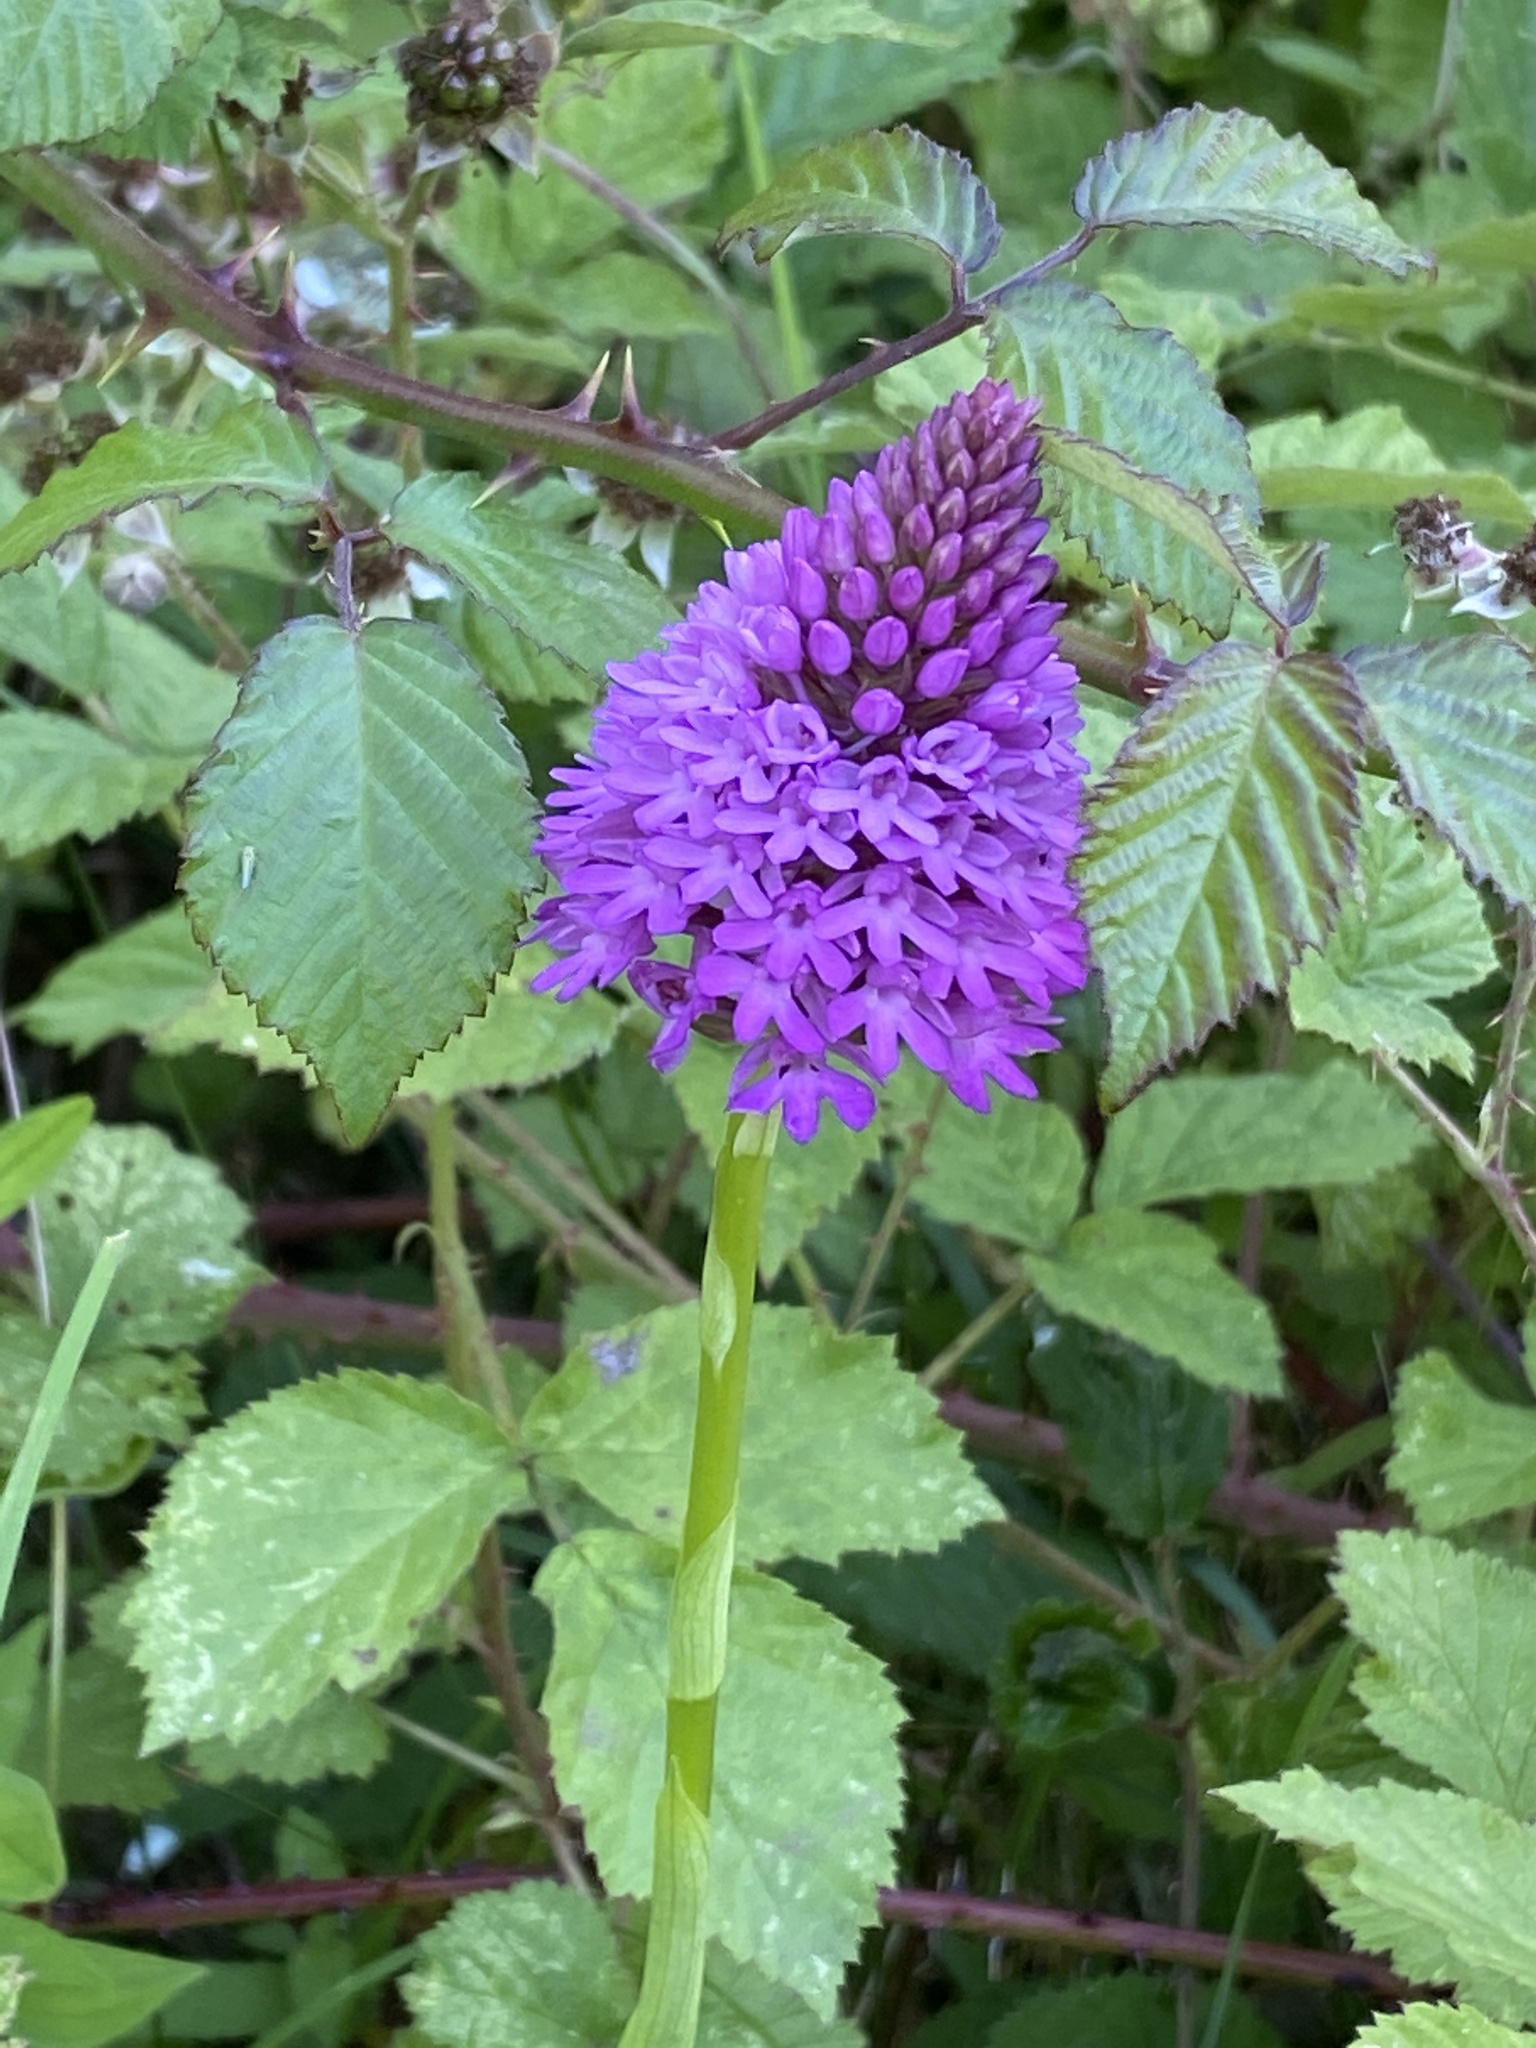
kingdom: Plantae
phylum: Tracheophyta
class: Liliopsida
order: Asparagales
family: Orchidaceae
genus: Anacamptis
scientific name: Anacamptis pyramidalis
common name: Pyramidal orchid
